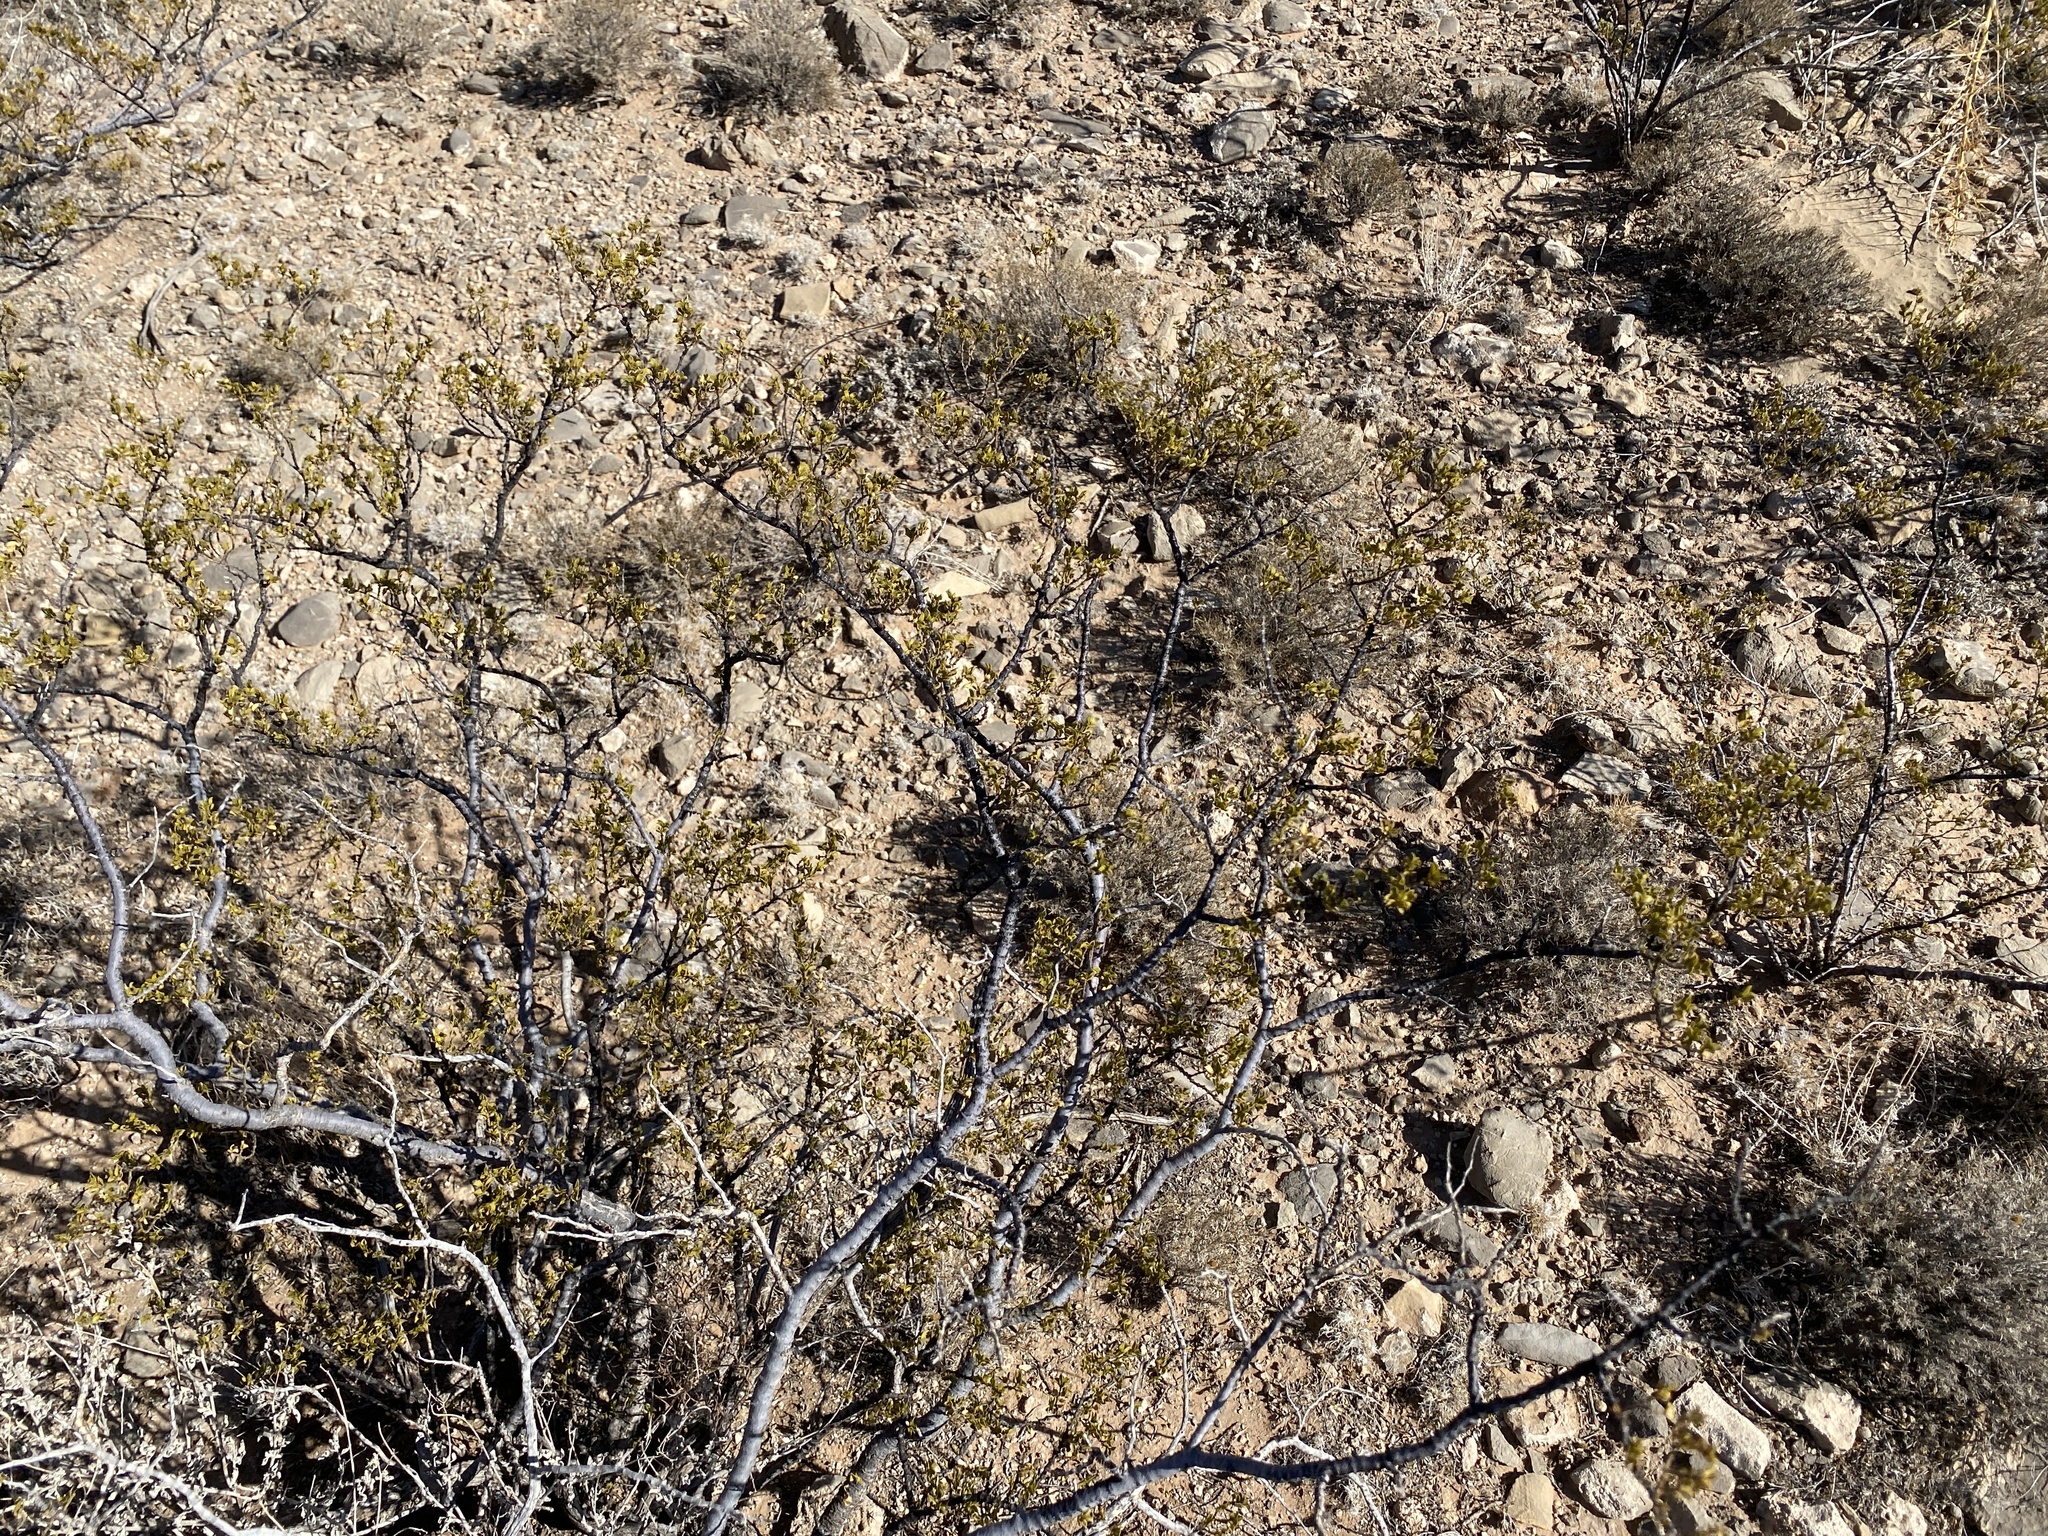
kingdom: Plantae
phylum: Tracheophyta
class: Magnoliopsida
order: Zygophyllales
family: Zygophyllaceae
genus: Larrea
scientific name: Larrea tridentata
